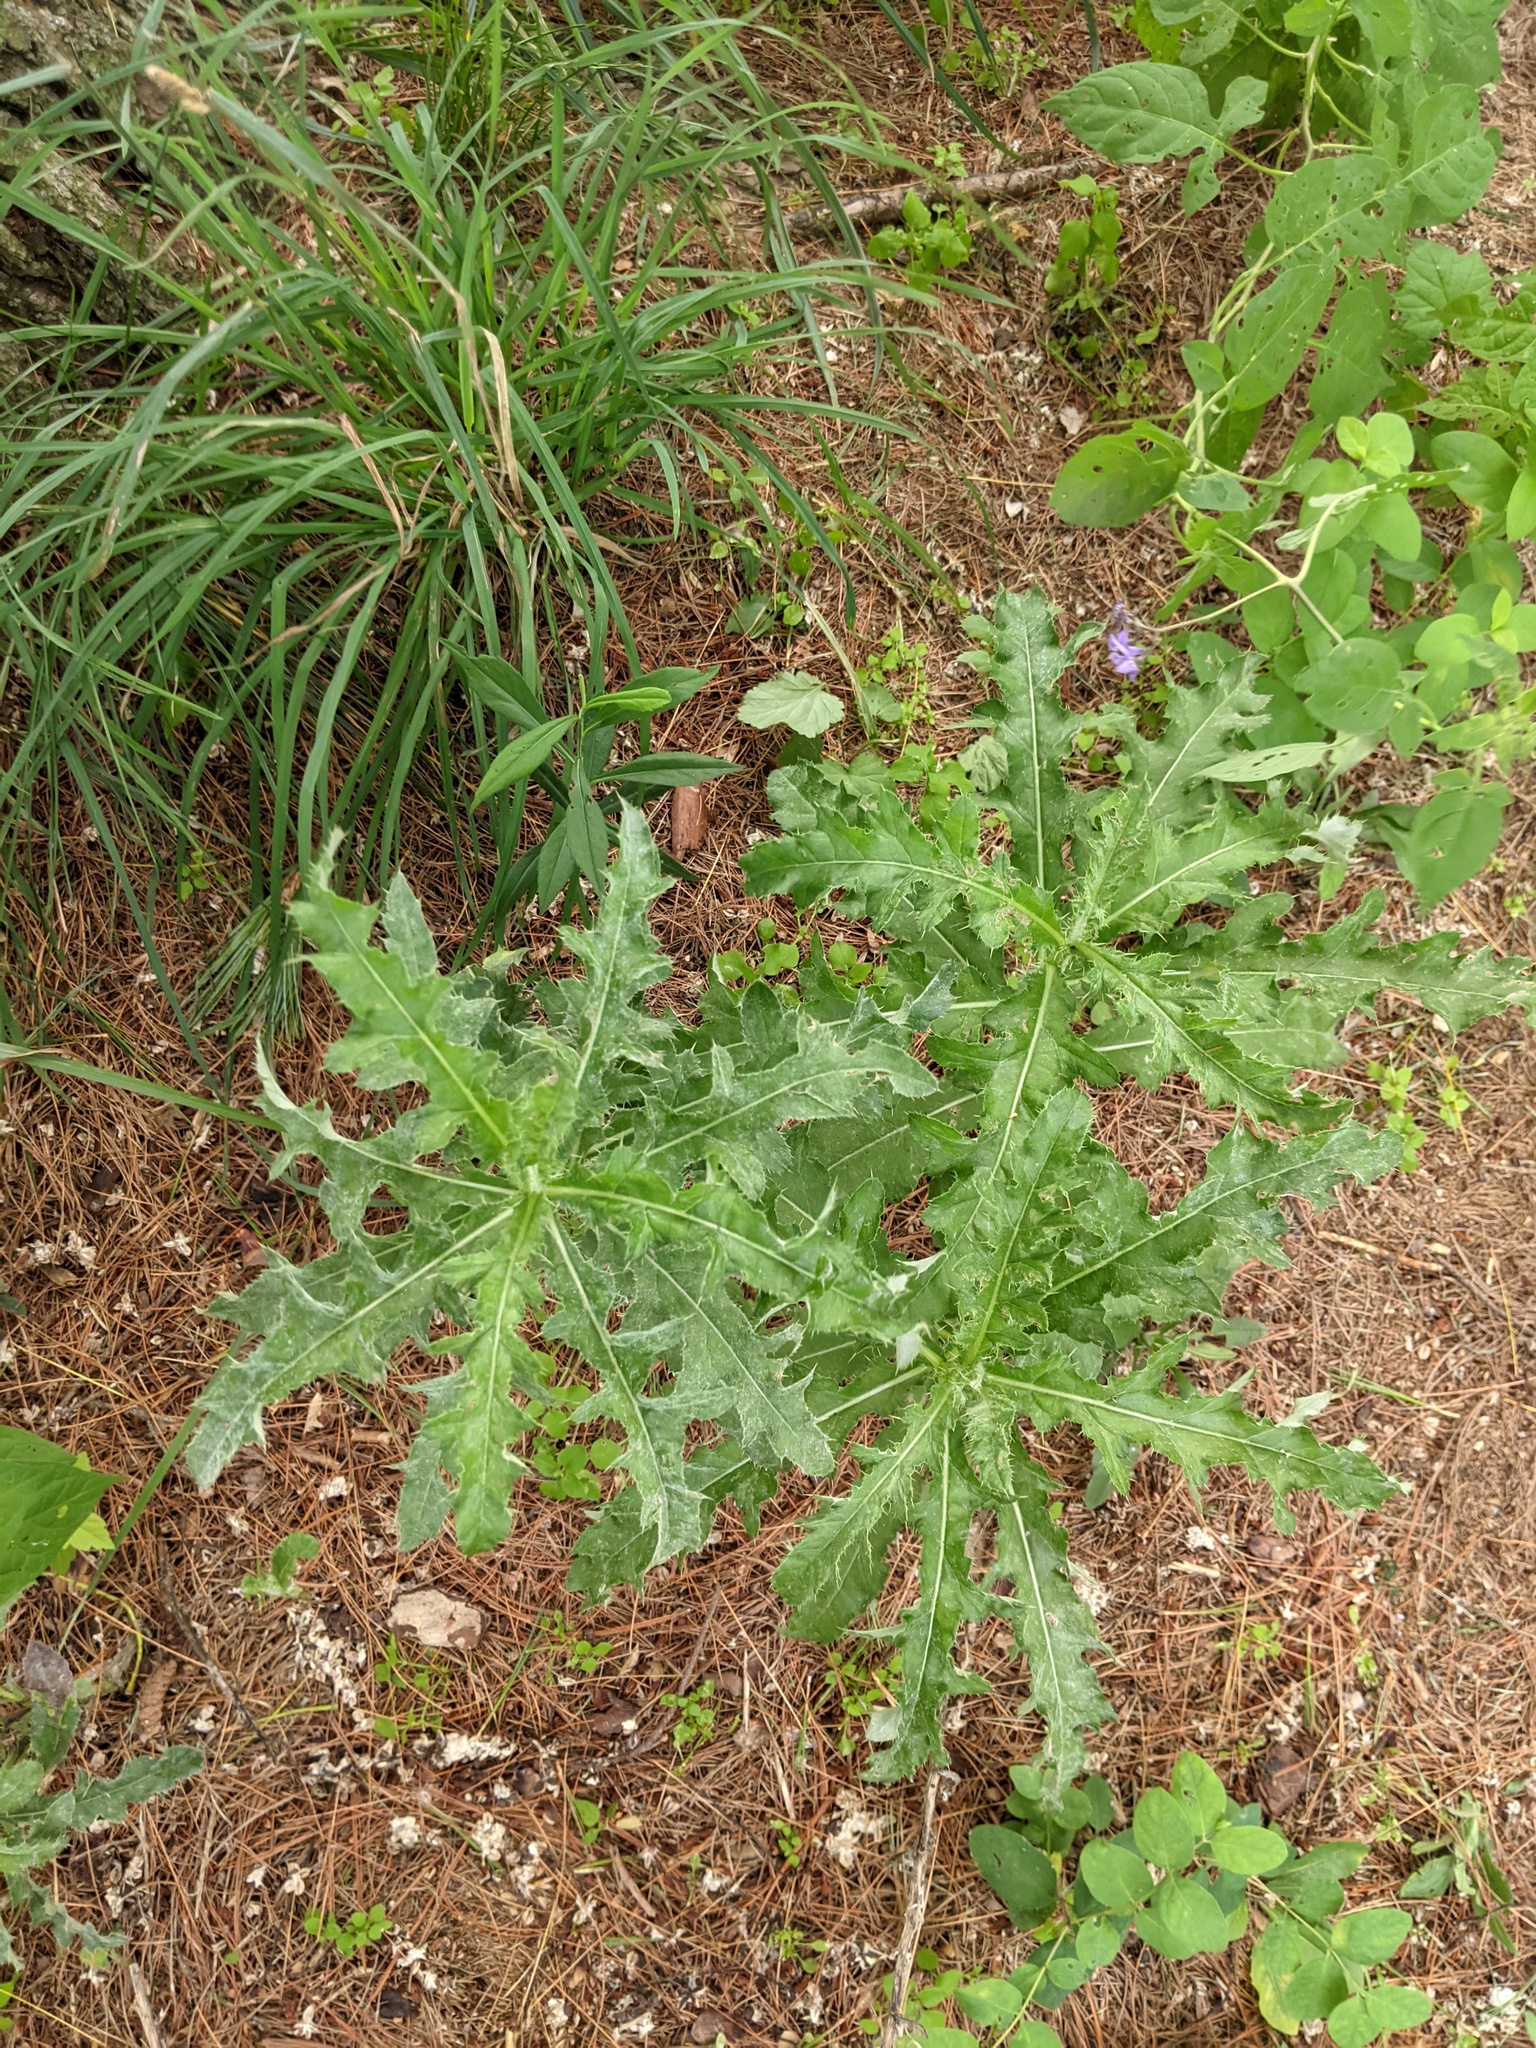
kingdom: Plantae
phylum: Tracheophyta
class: Magnoliopsida
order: Asterales
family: Asteraceae
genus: Cirsium
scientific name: Cirsium arvense
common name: Creeping thistle
